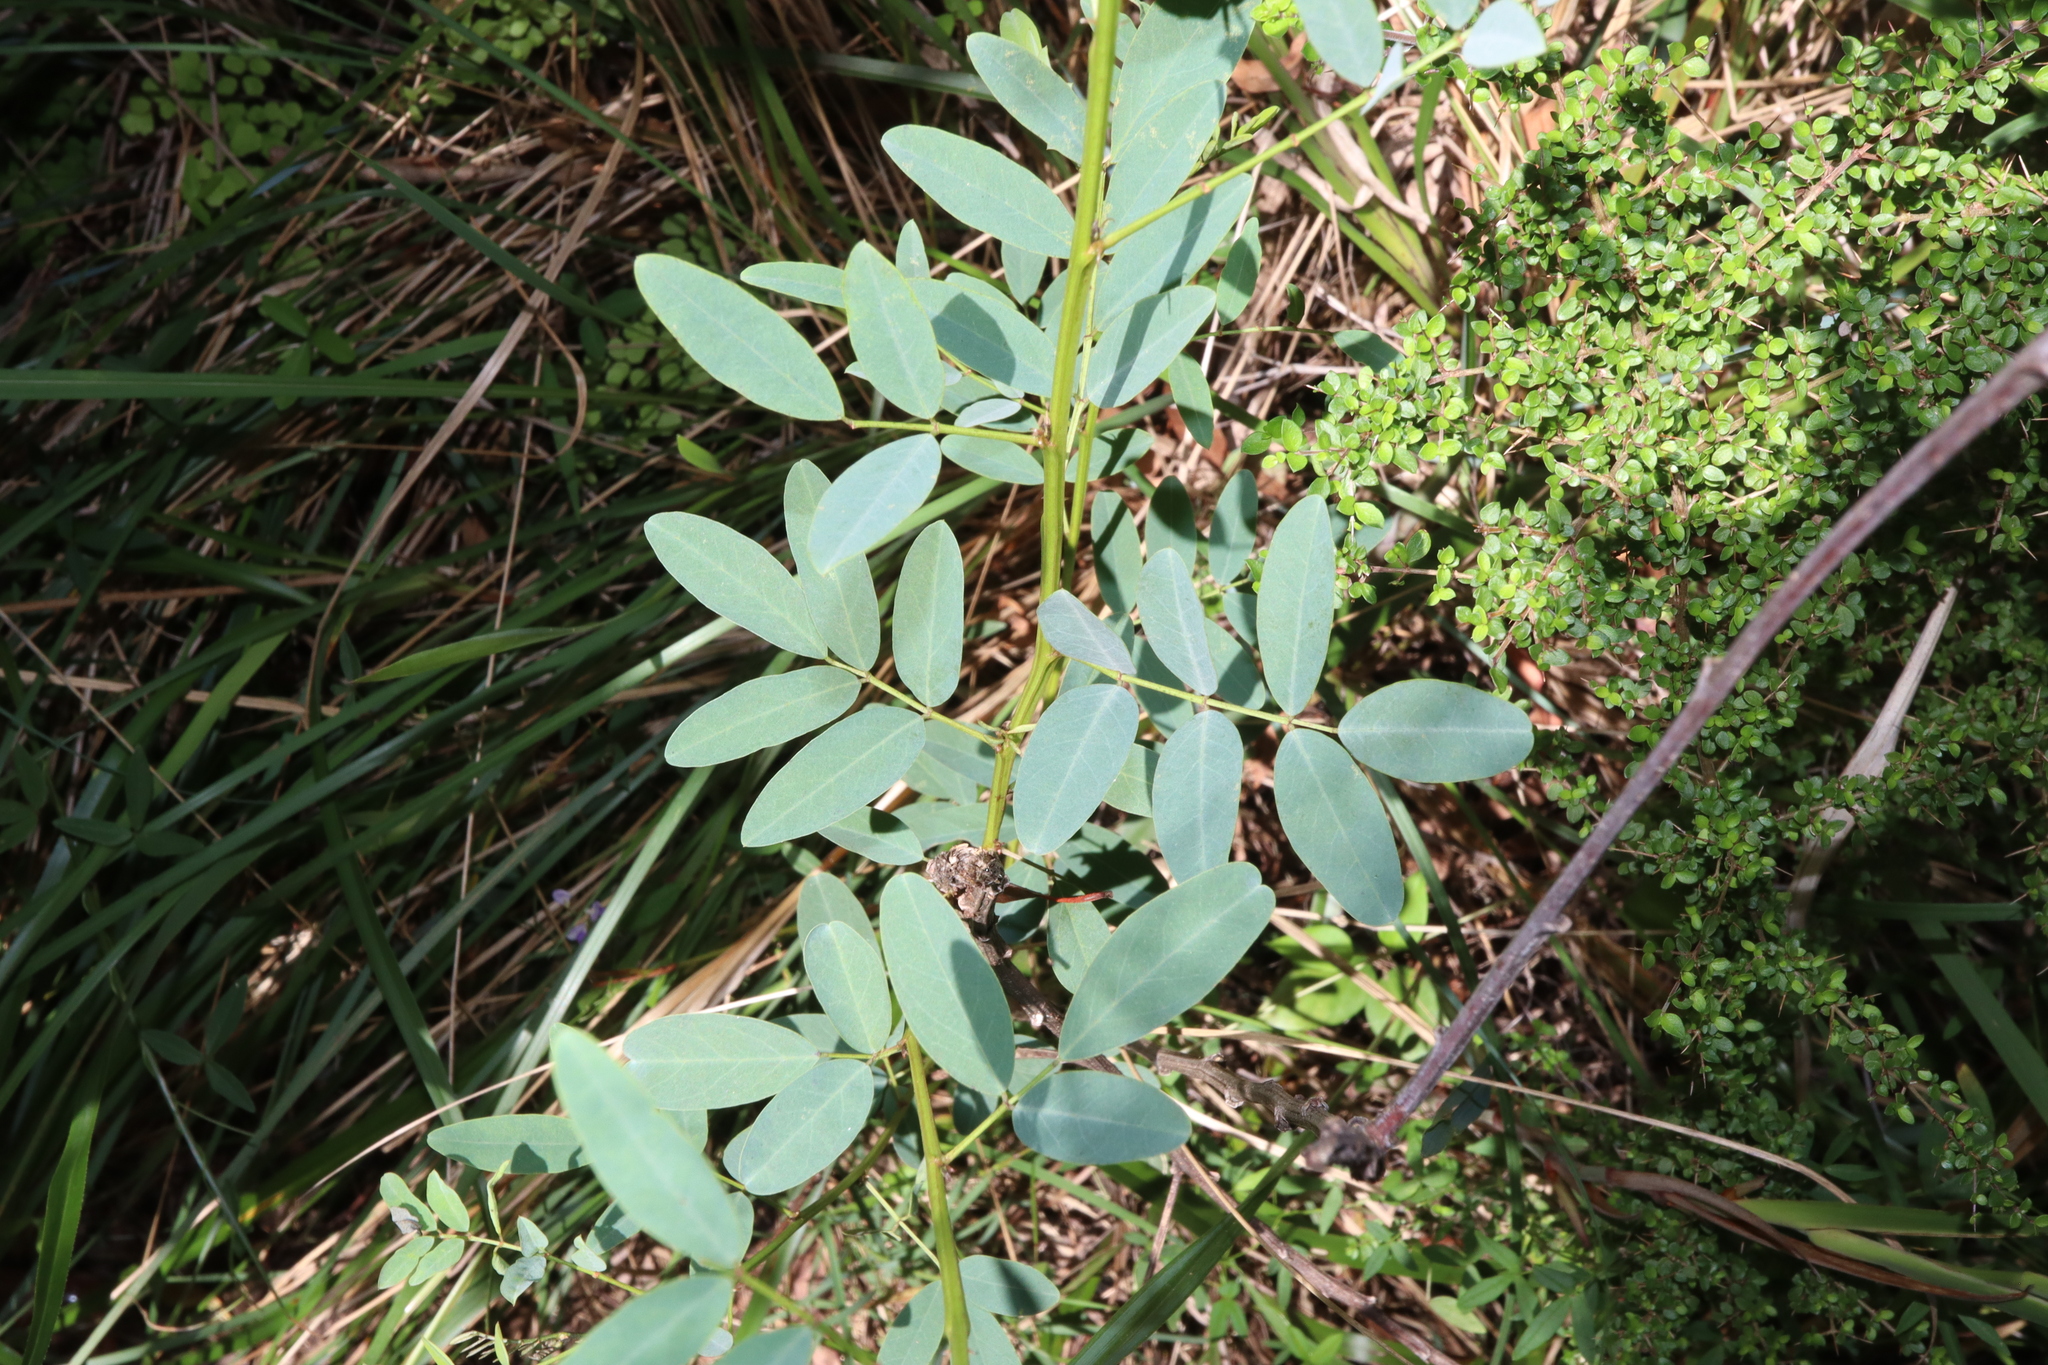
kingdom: Plantae
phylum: Tracheophyta
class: Magnoliopsida
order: Fabales
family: Fabaceae
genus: Indigofera
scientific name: Indigofera australis
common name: Australian indigo
